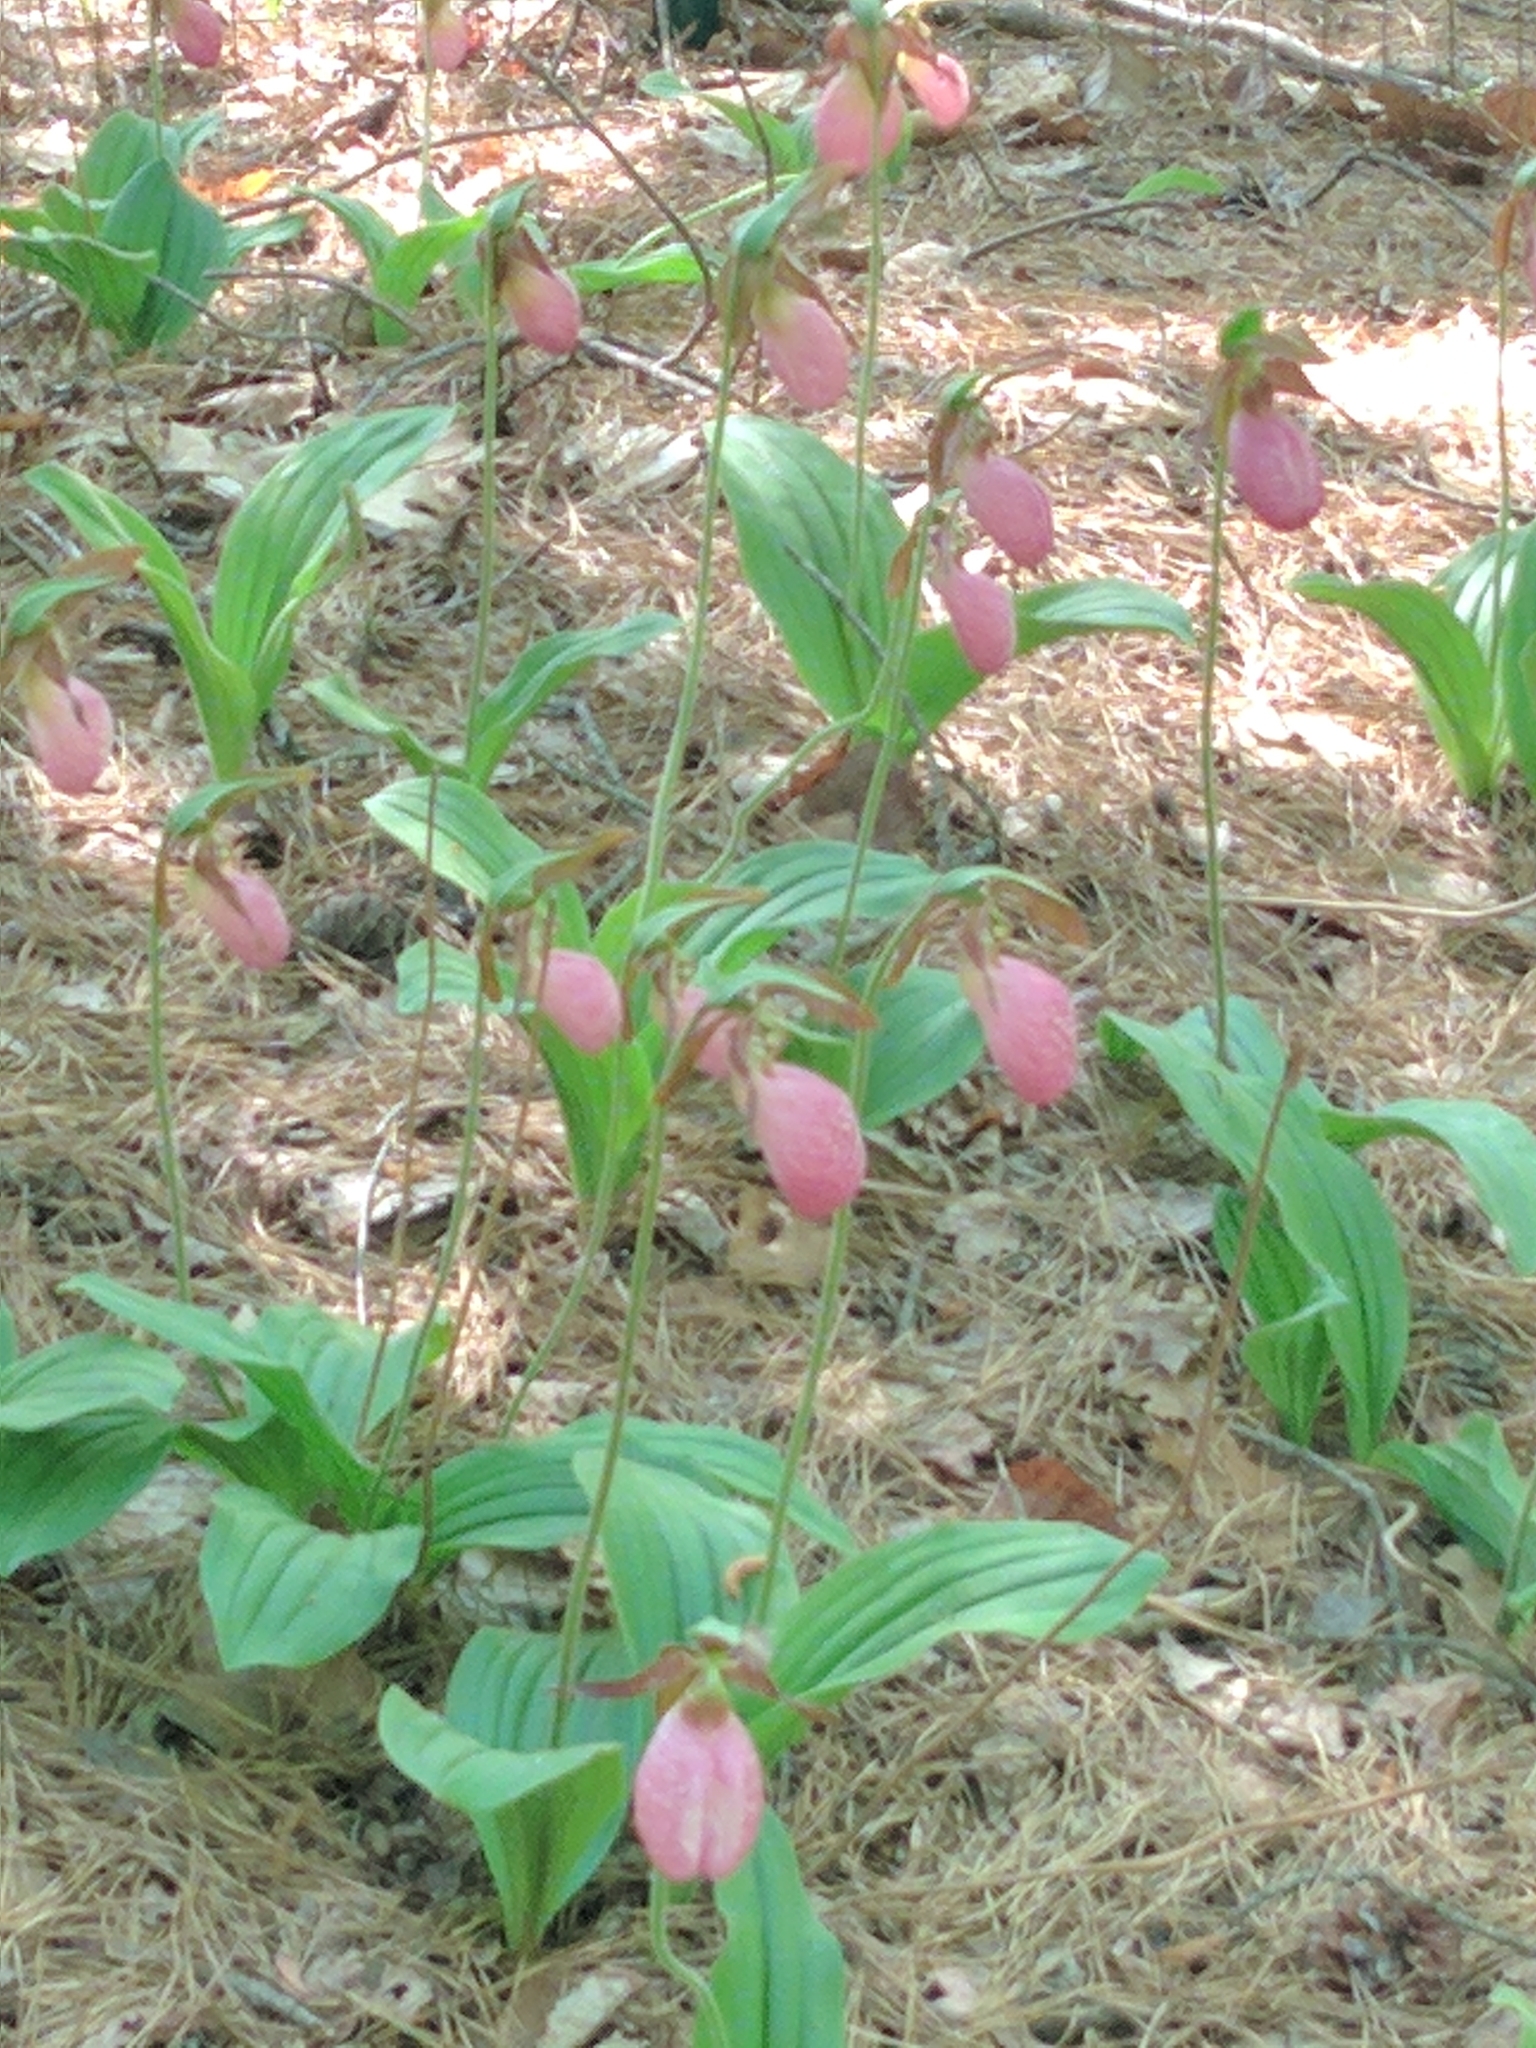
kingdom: Plantae
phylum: Tracheophyta
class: Liliopsida
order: Asparagales
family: Orchidaceae
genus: Cypripedium
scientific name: Cypripedium acaule
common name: Pink lady's-slipper
